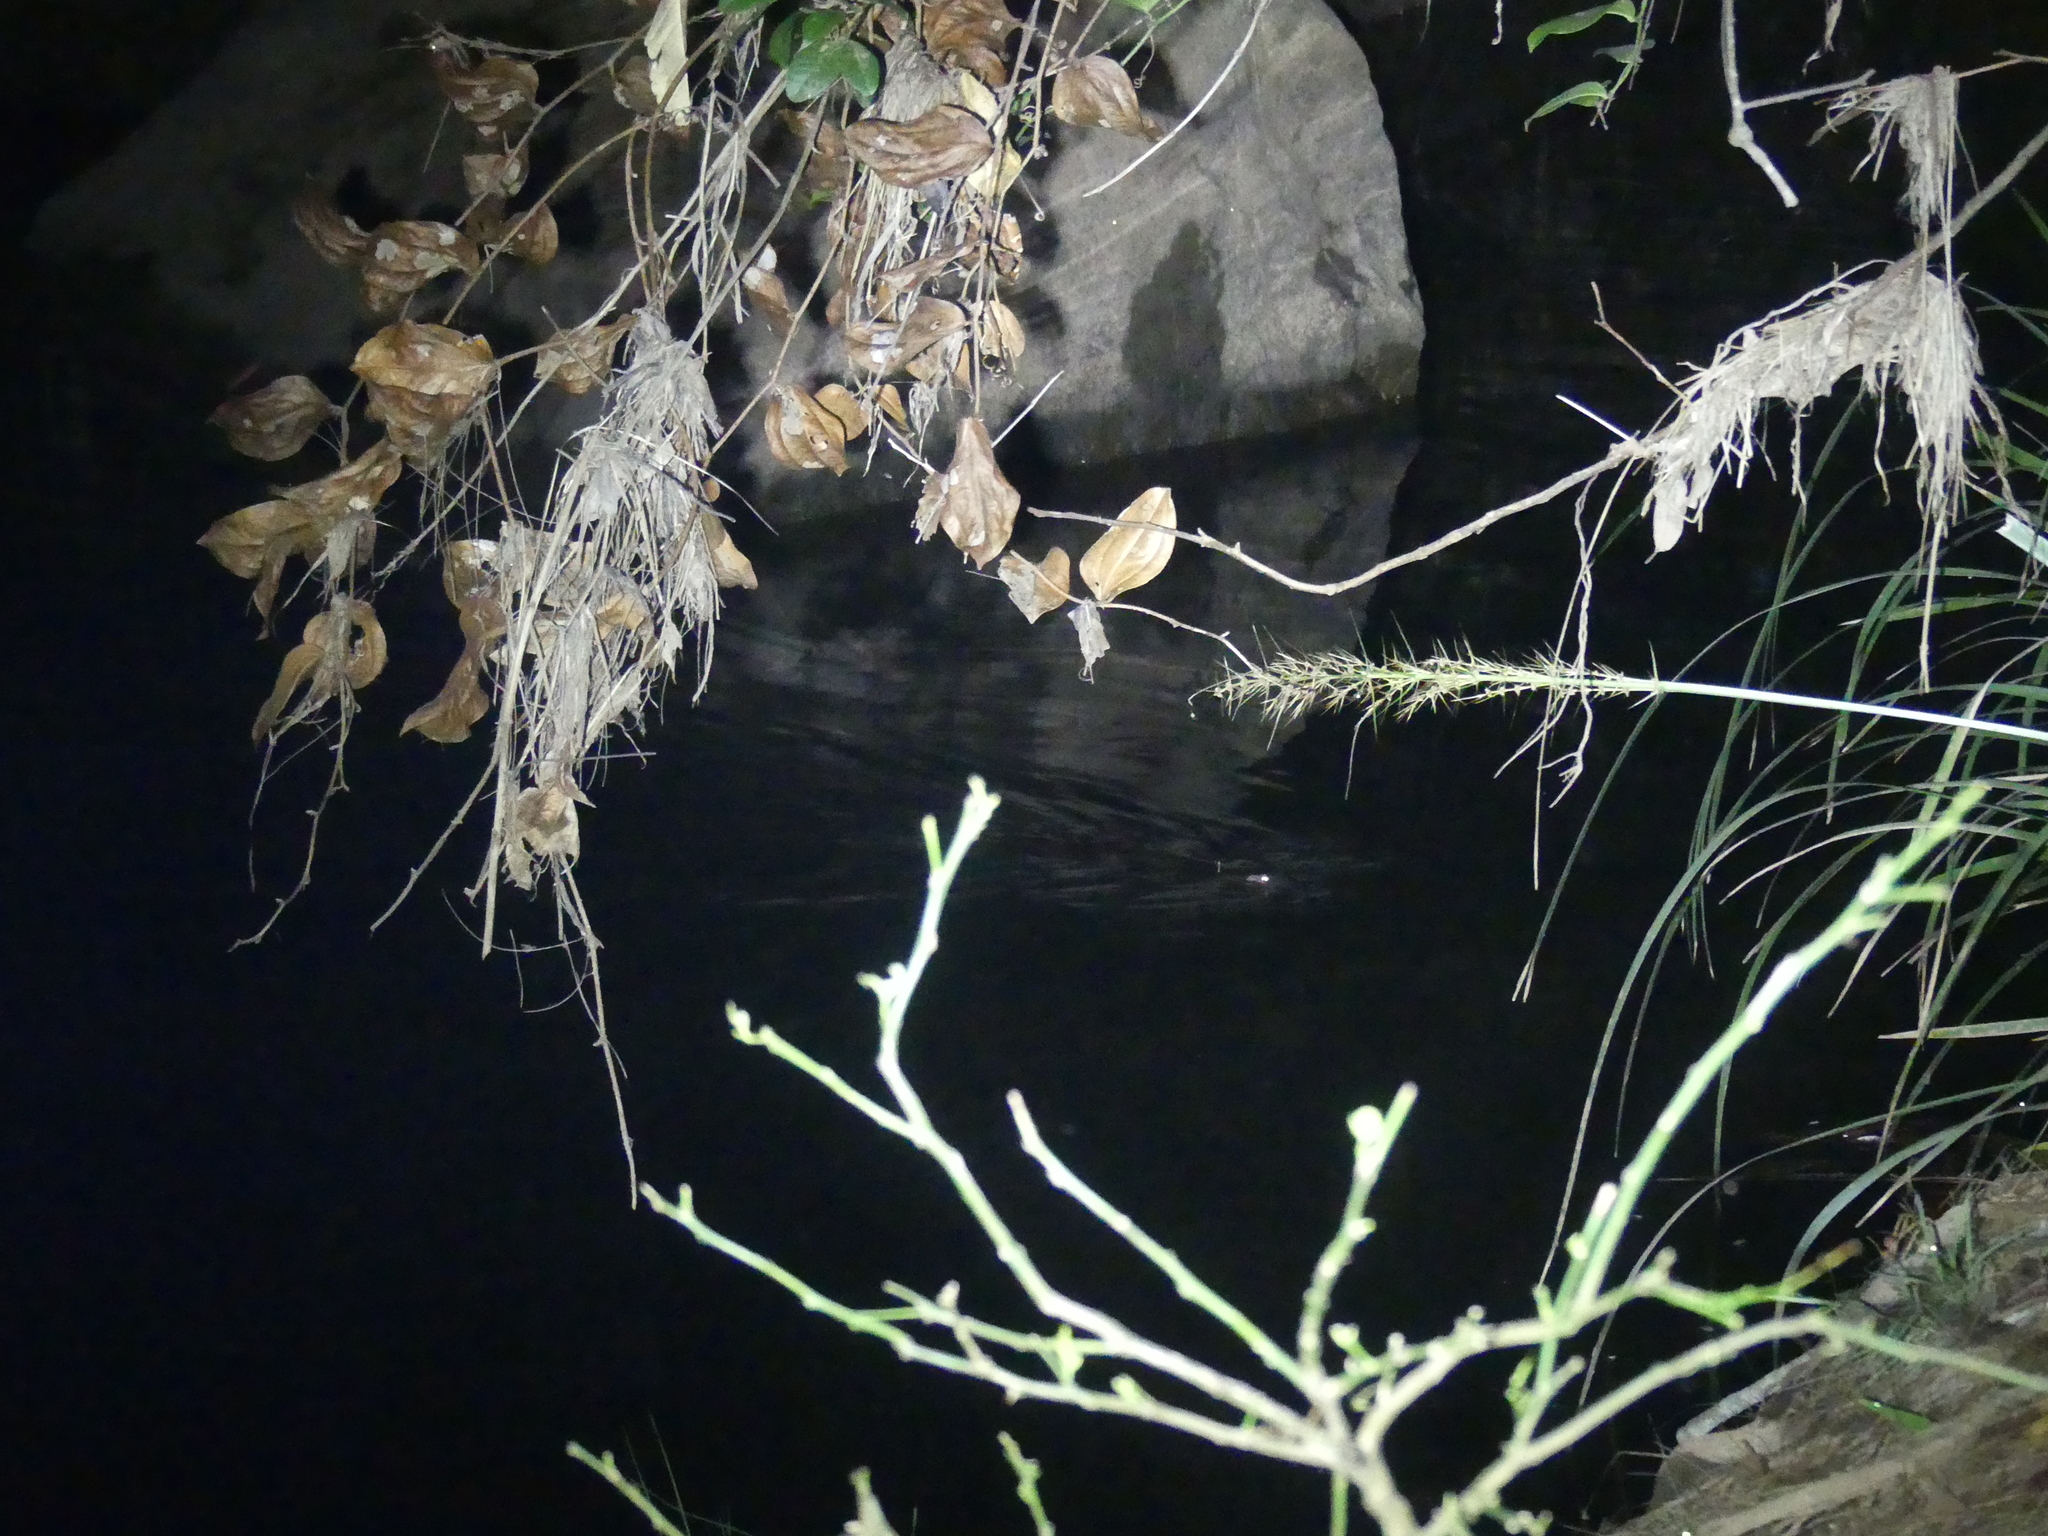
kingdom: Animalia
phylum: Chordata
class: Mammalia
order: Monotremata
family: Ornithorhynchidae
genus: Ornithorhynchus
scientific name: Ornithorhynchus anatinus
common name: Platypus
